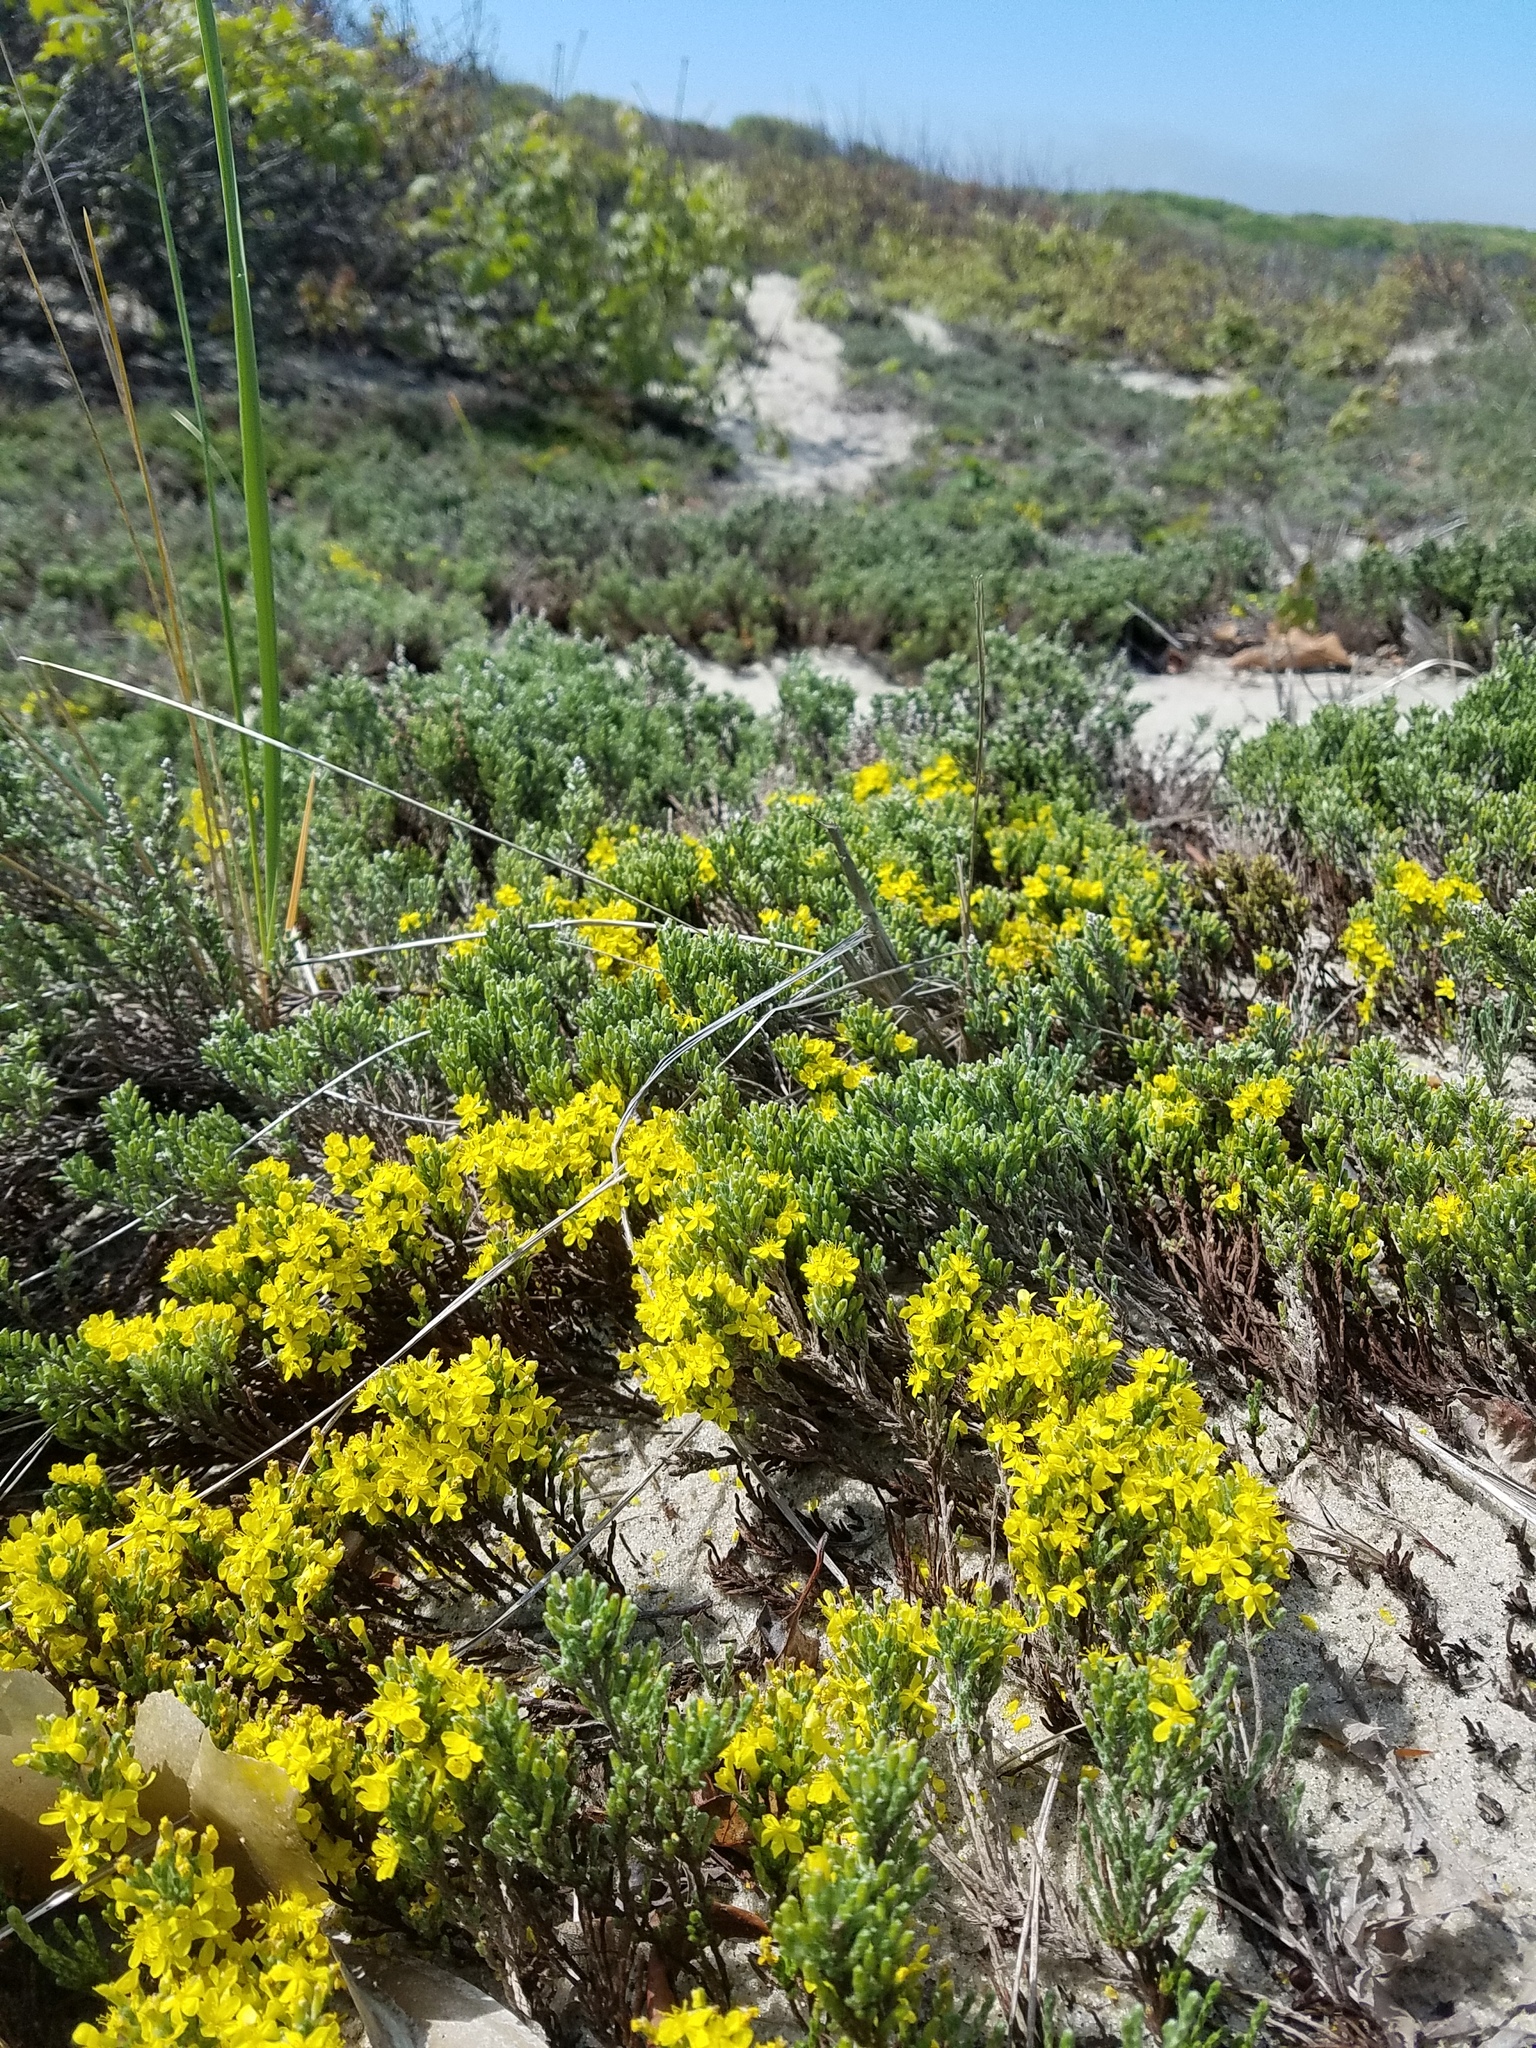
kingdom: Plantae
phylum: Tracheophyta
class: Magnoliopsida
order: Malvales
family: Cistaceae
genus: Hudsonia
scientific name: Hudsonia tomentosa
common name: Beach-heath
